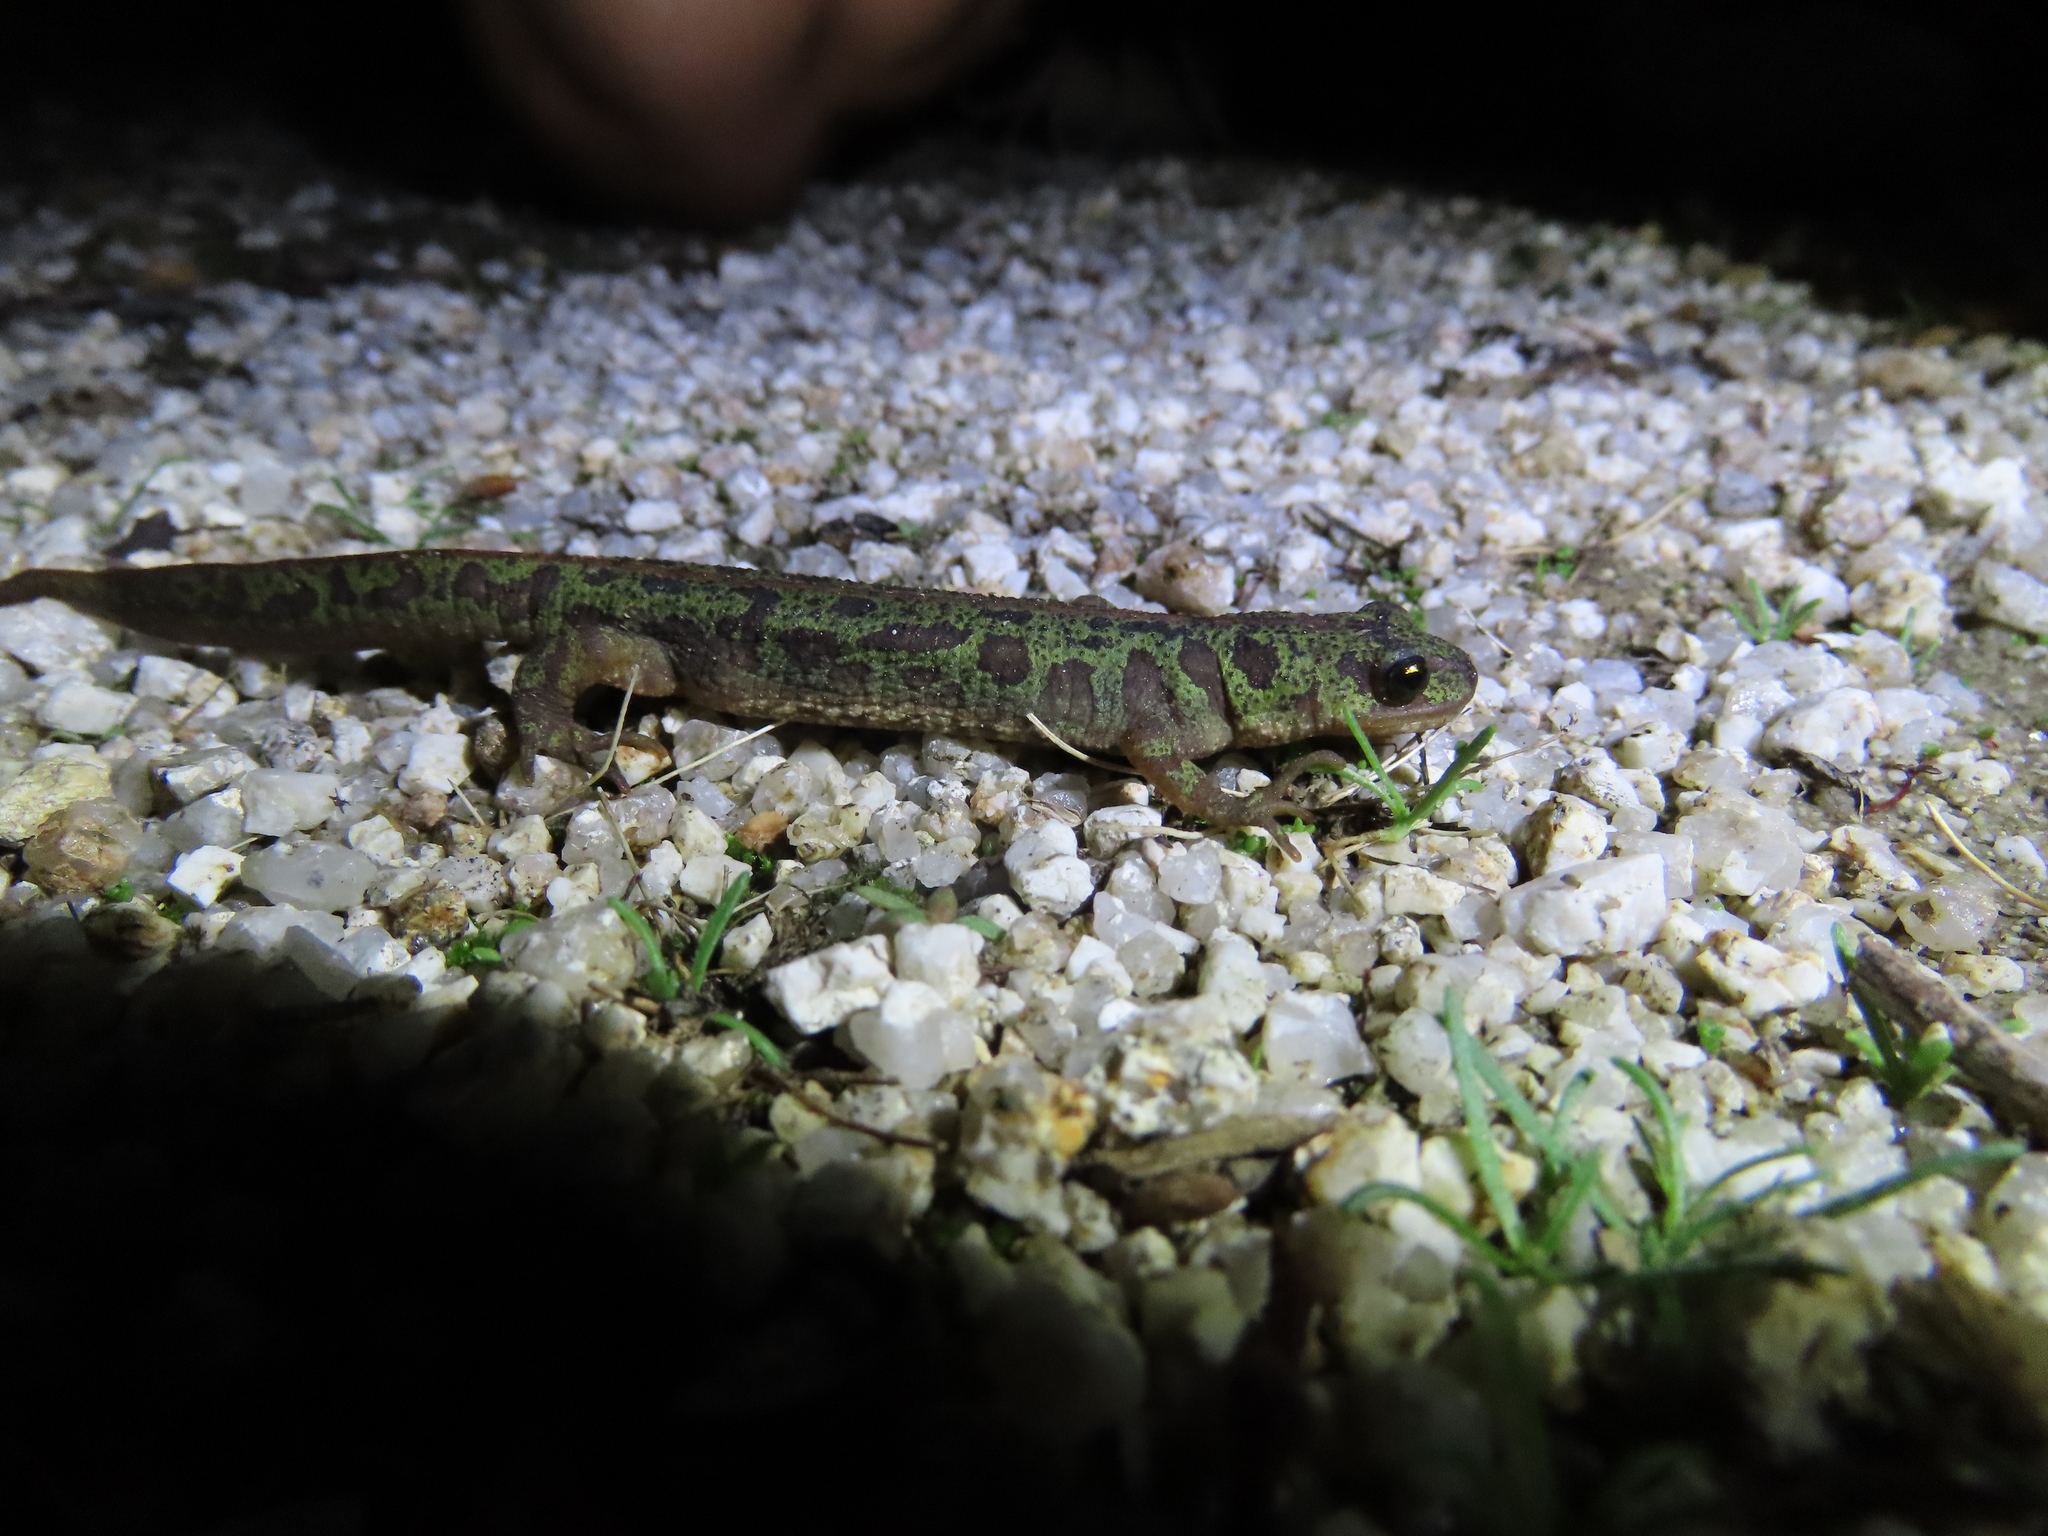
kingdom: Animalia
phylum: Chordata
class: Amphibia
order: Caudata
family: Salamandridae
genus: Triturus
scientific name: Triturus pygmaeus
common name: Southern marbled newt
